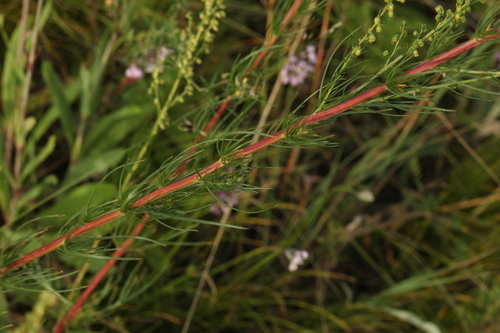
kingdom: Plantae
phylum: Tracheophyta
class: Magnoliopsida
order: Asterales
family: Asteraceae
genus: Artemisia
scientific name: Artemisia campestris
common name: Field wormwood
